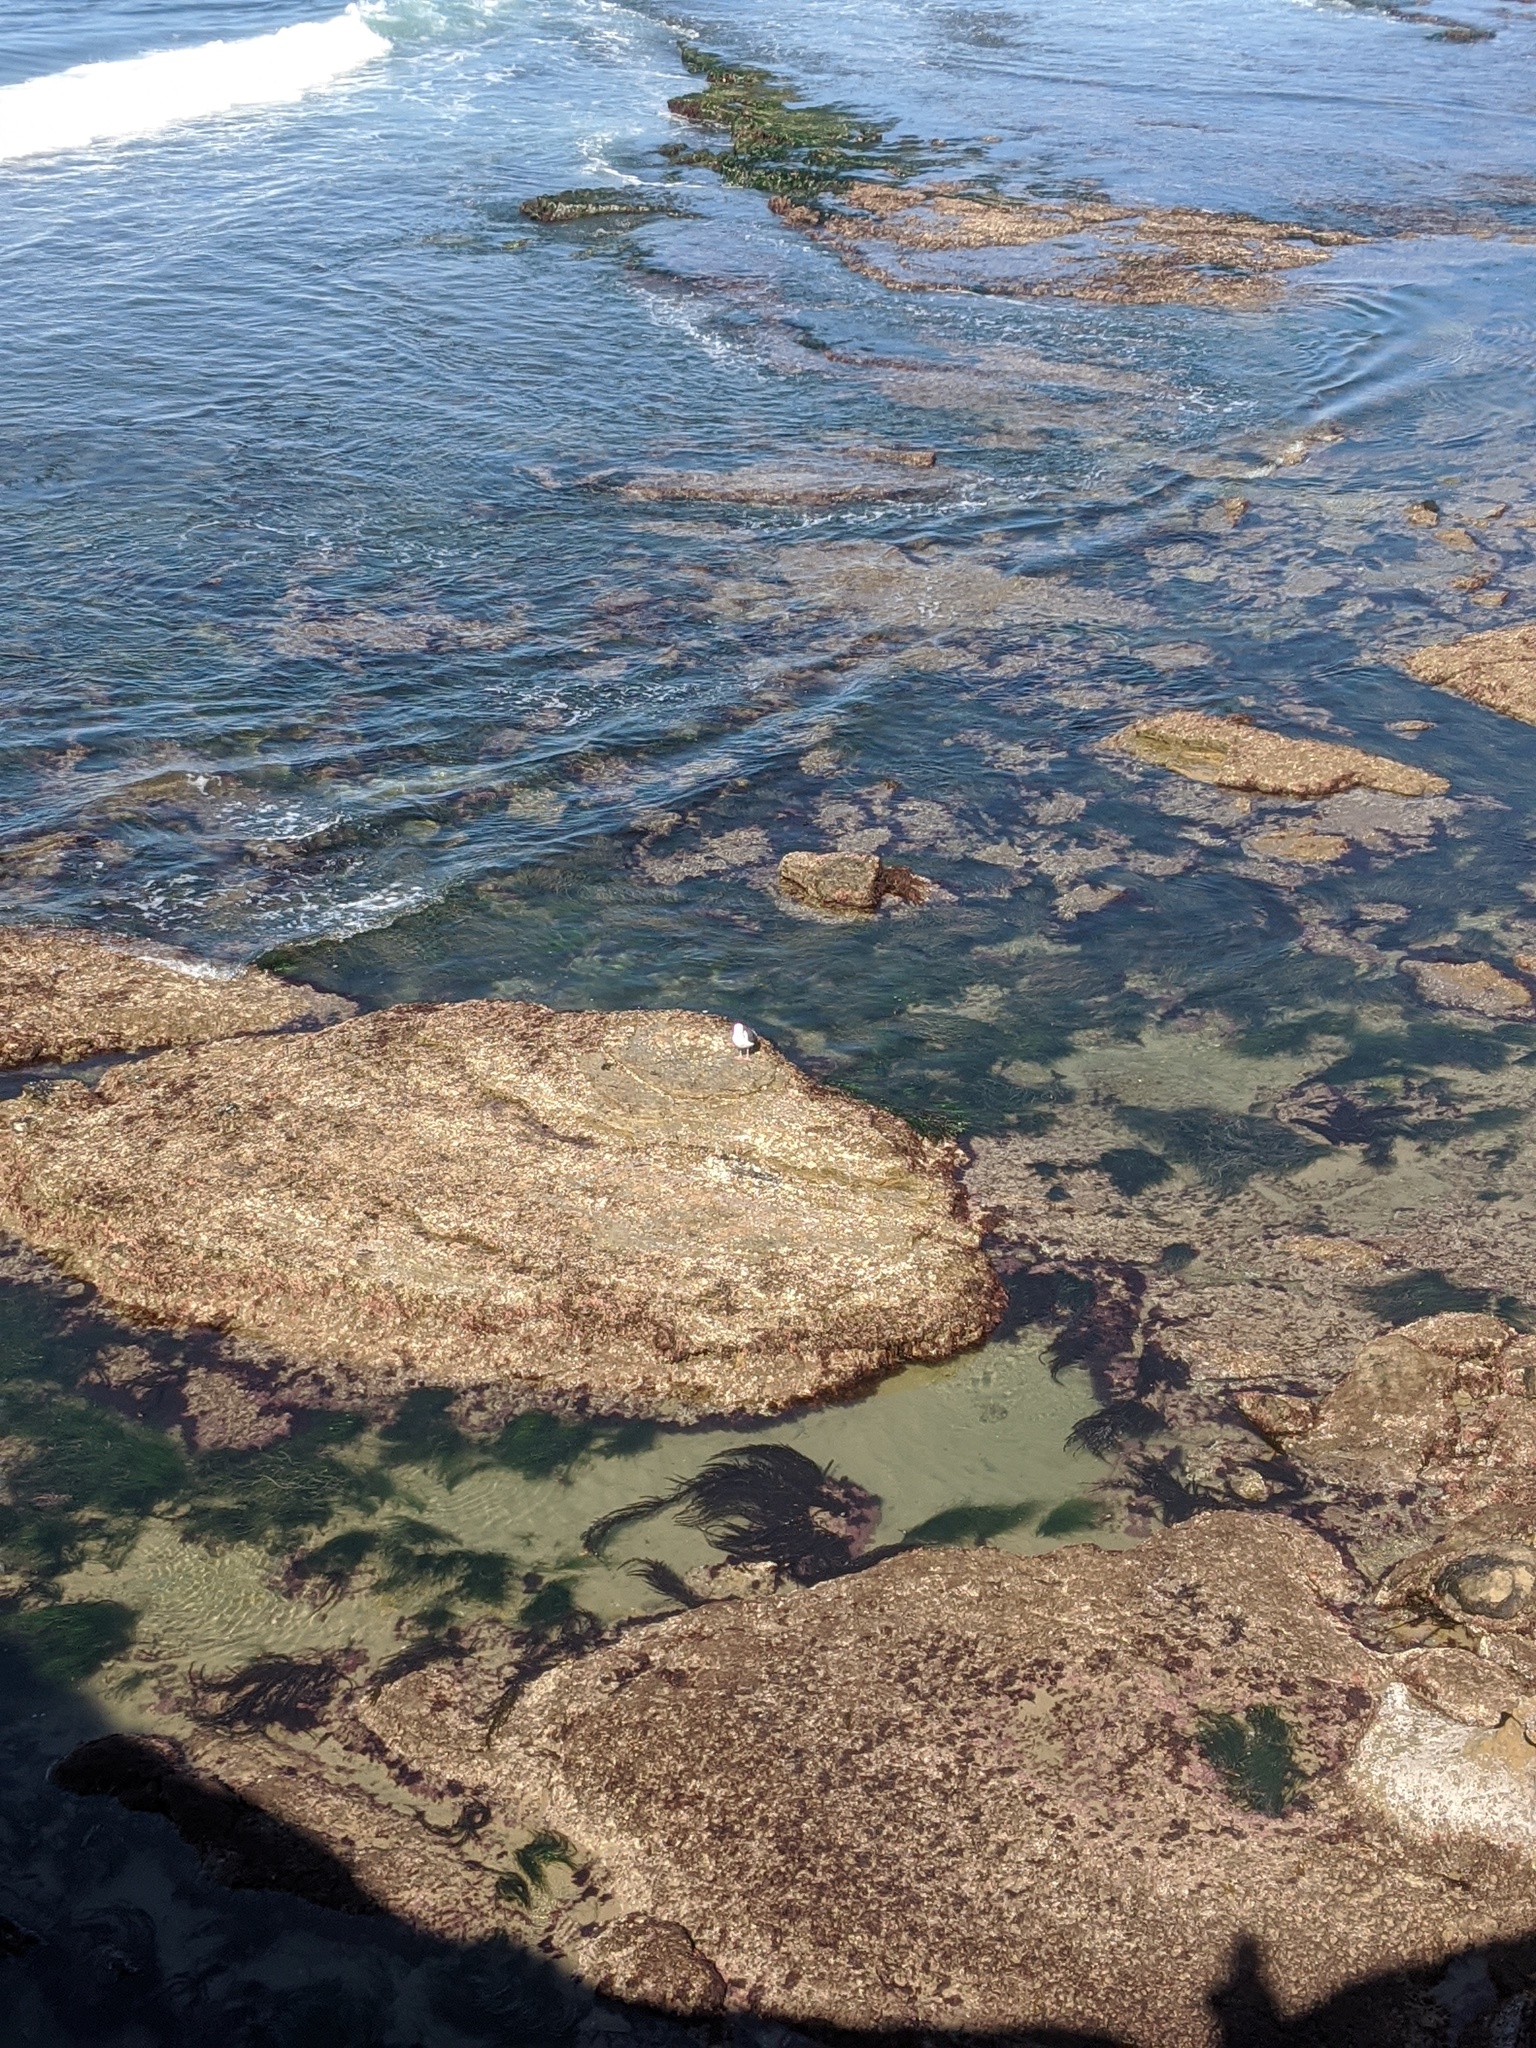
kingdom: Animalia
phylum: Chordata
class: Aves
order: Charadriiformes
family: Laridae
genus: Larus
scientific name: Larus occidentalis
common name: Western gull
